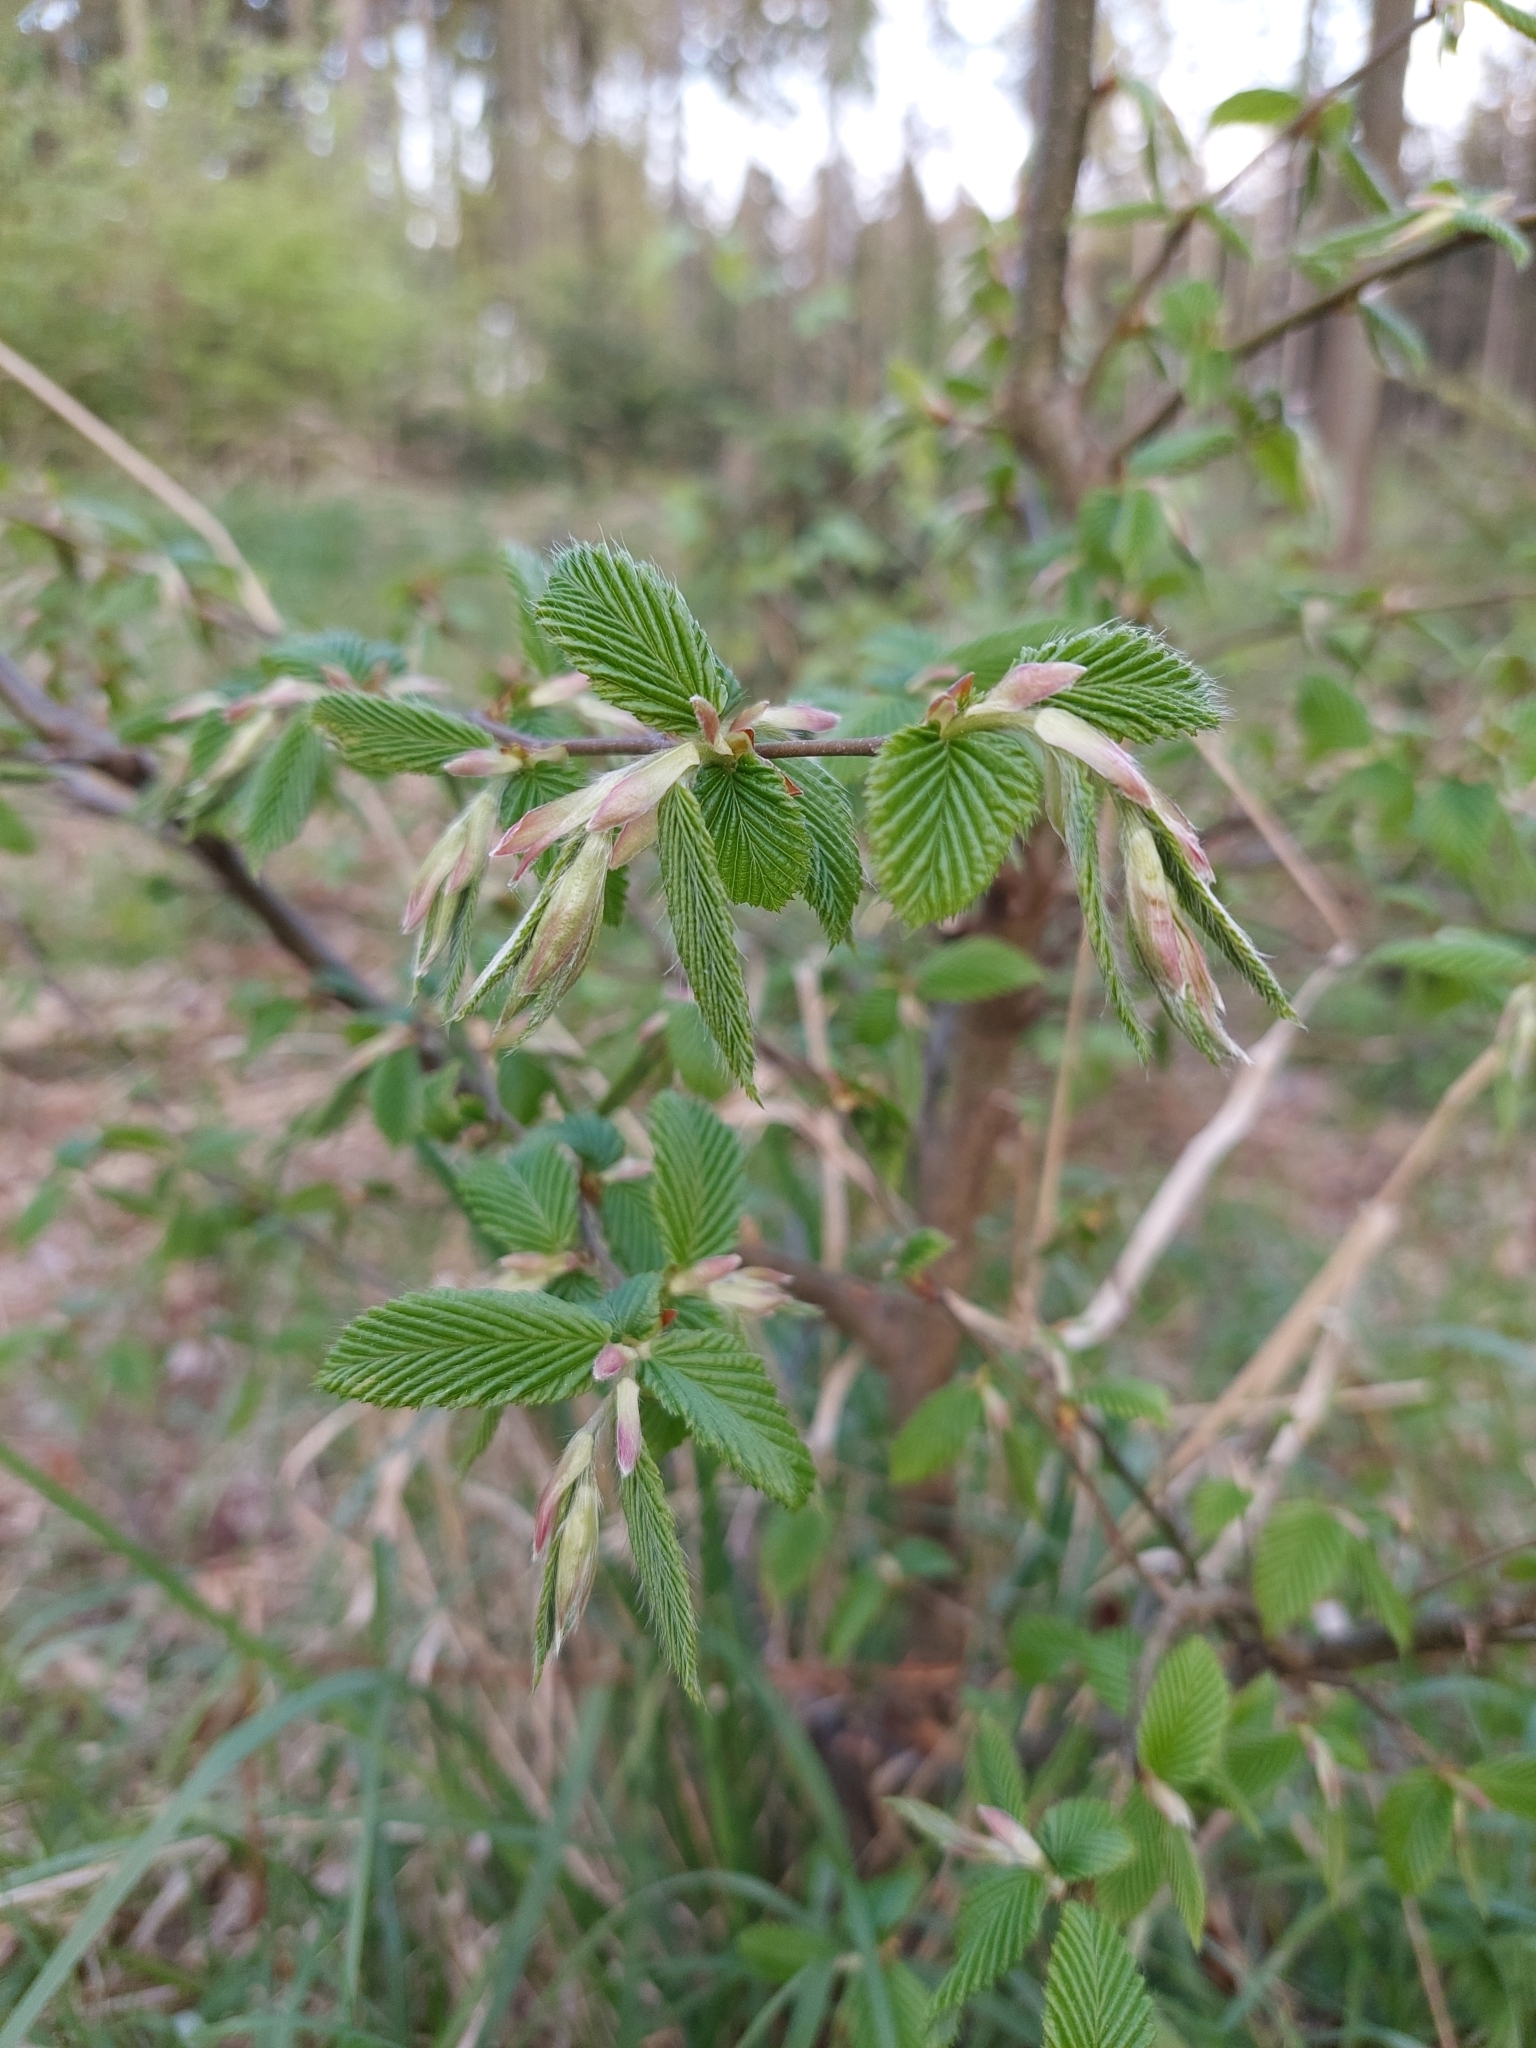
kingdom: Plantae
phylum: Tracheophyta
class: Magnoliopsida
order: Fagales
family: Betulaceae
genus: Carpinus
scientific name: Carpinus betulus
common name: Hornbeam
